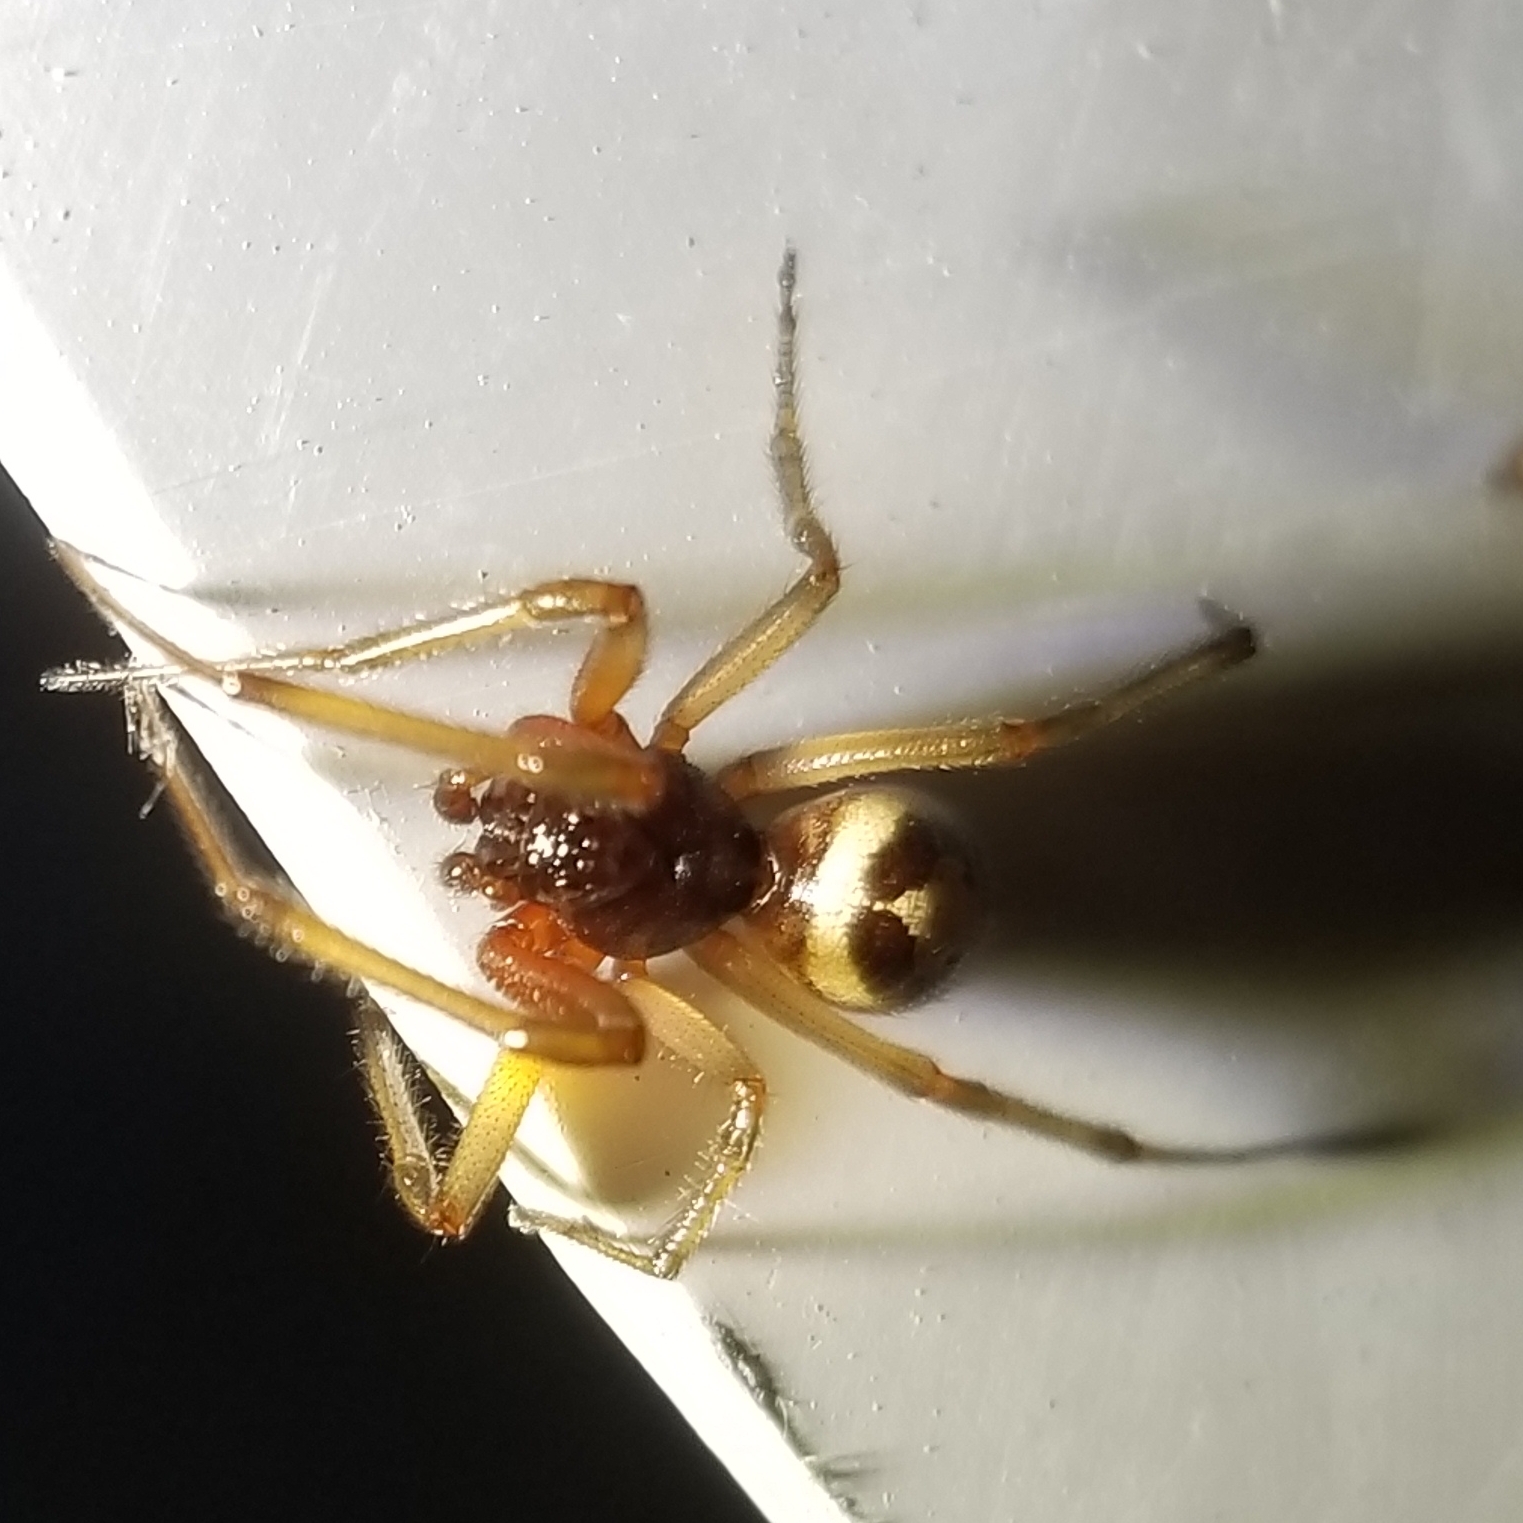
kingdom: Animalia
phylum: Arthropoda
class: Arachnida
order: Araneae
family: Theridiidae
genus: Steatoda
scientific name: Steatoda nobilis
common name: Cobweb weaver
